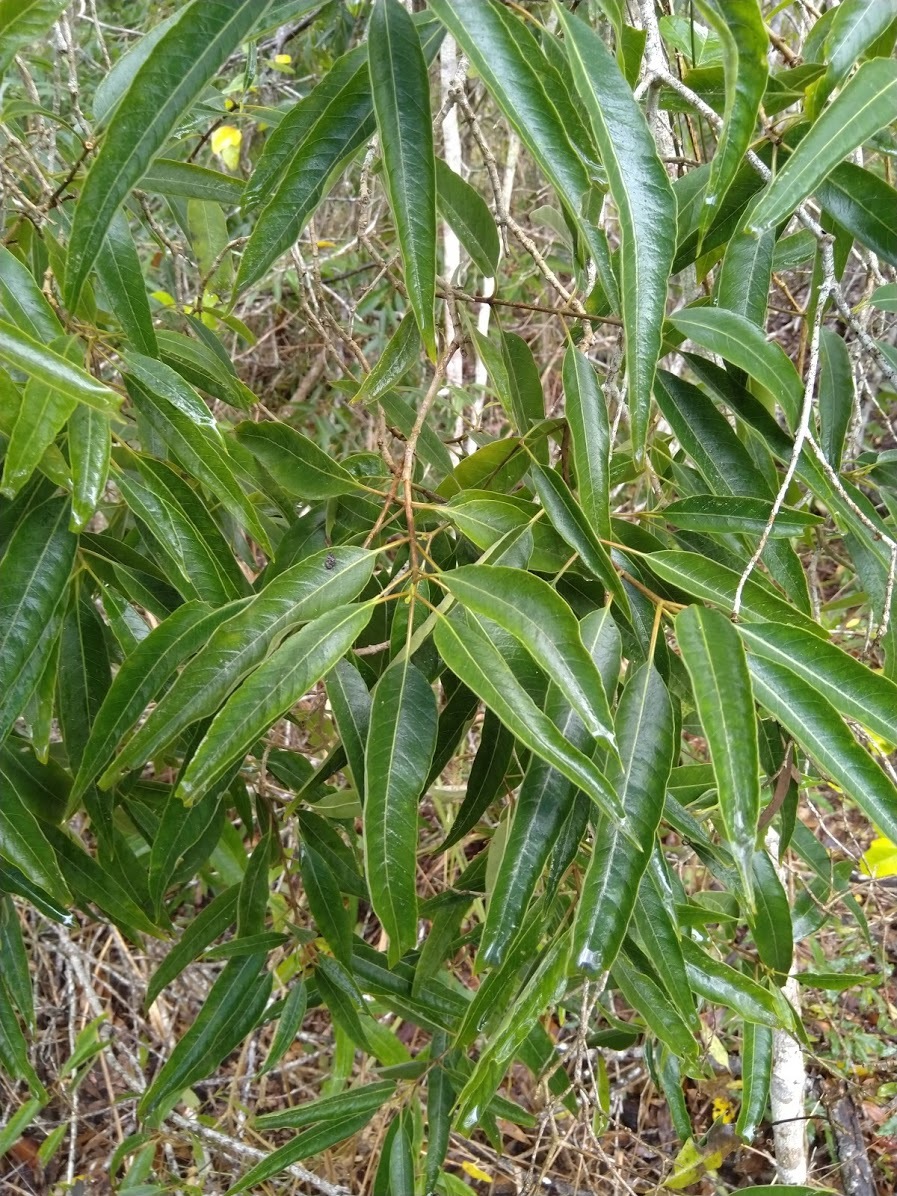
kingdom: Plantae
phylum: Tracheophyta
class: Magnoliopsida
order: Gentianales
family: Apocynaceae
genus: Alstonia
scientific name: Alstonia mollis
